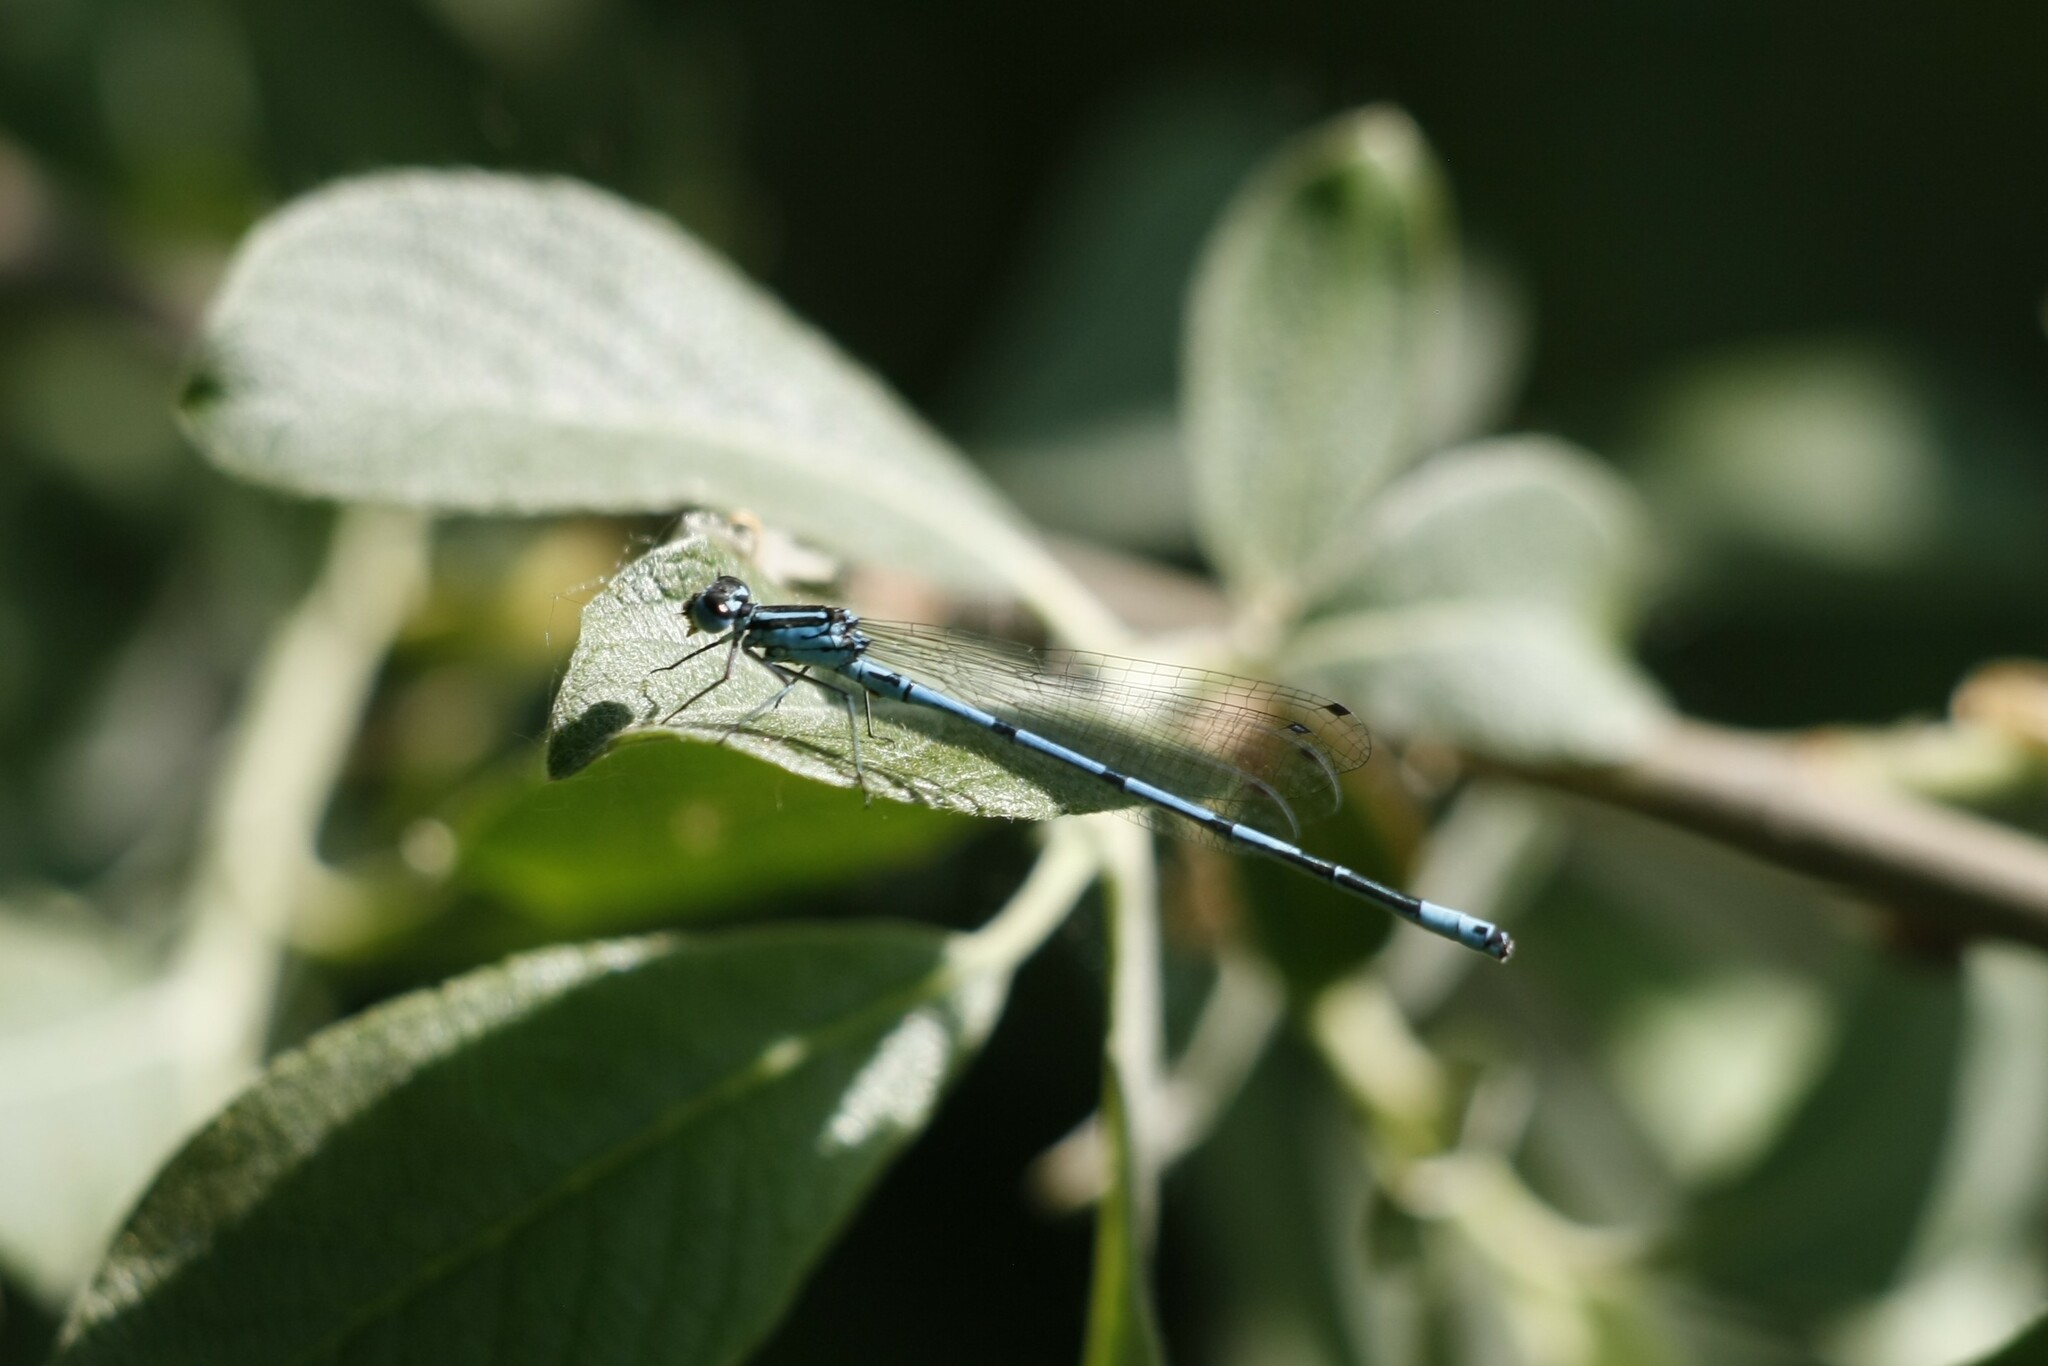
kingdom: Animalia
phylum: Arthropoda
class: Insecta
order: Odonata
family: Coenagrionidae
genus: Coenagrion
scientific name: Coenagrion puella
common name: Azure damselfly
